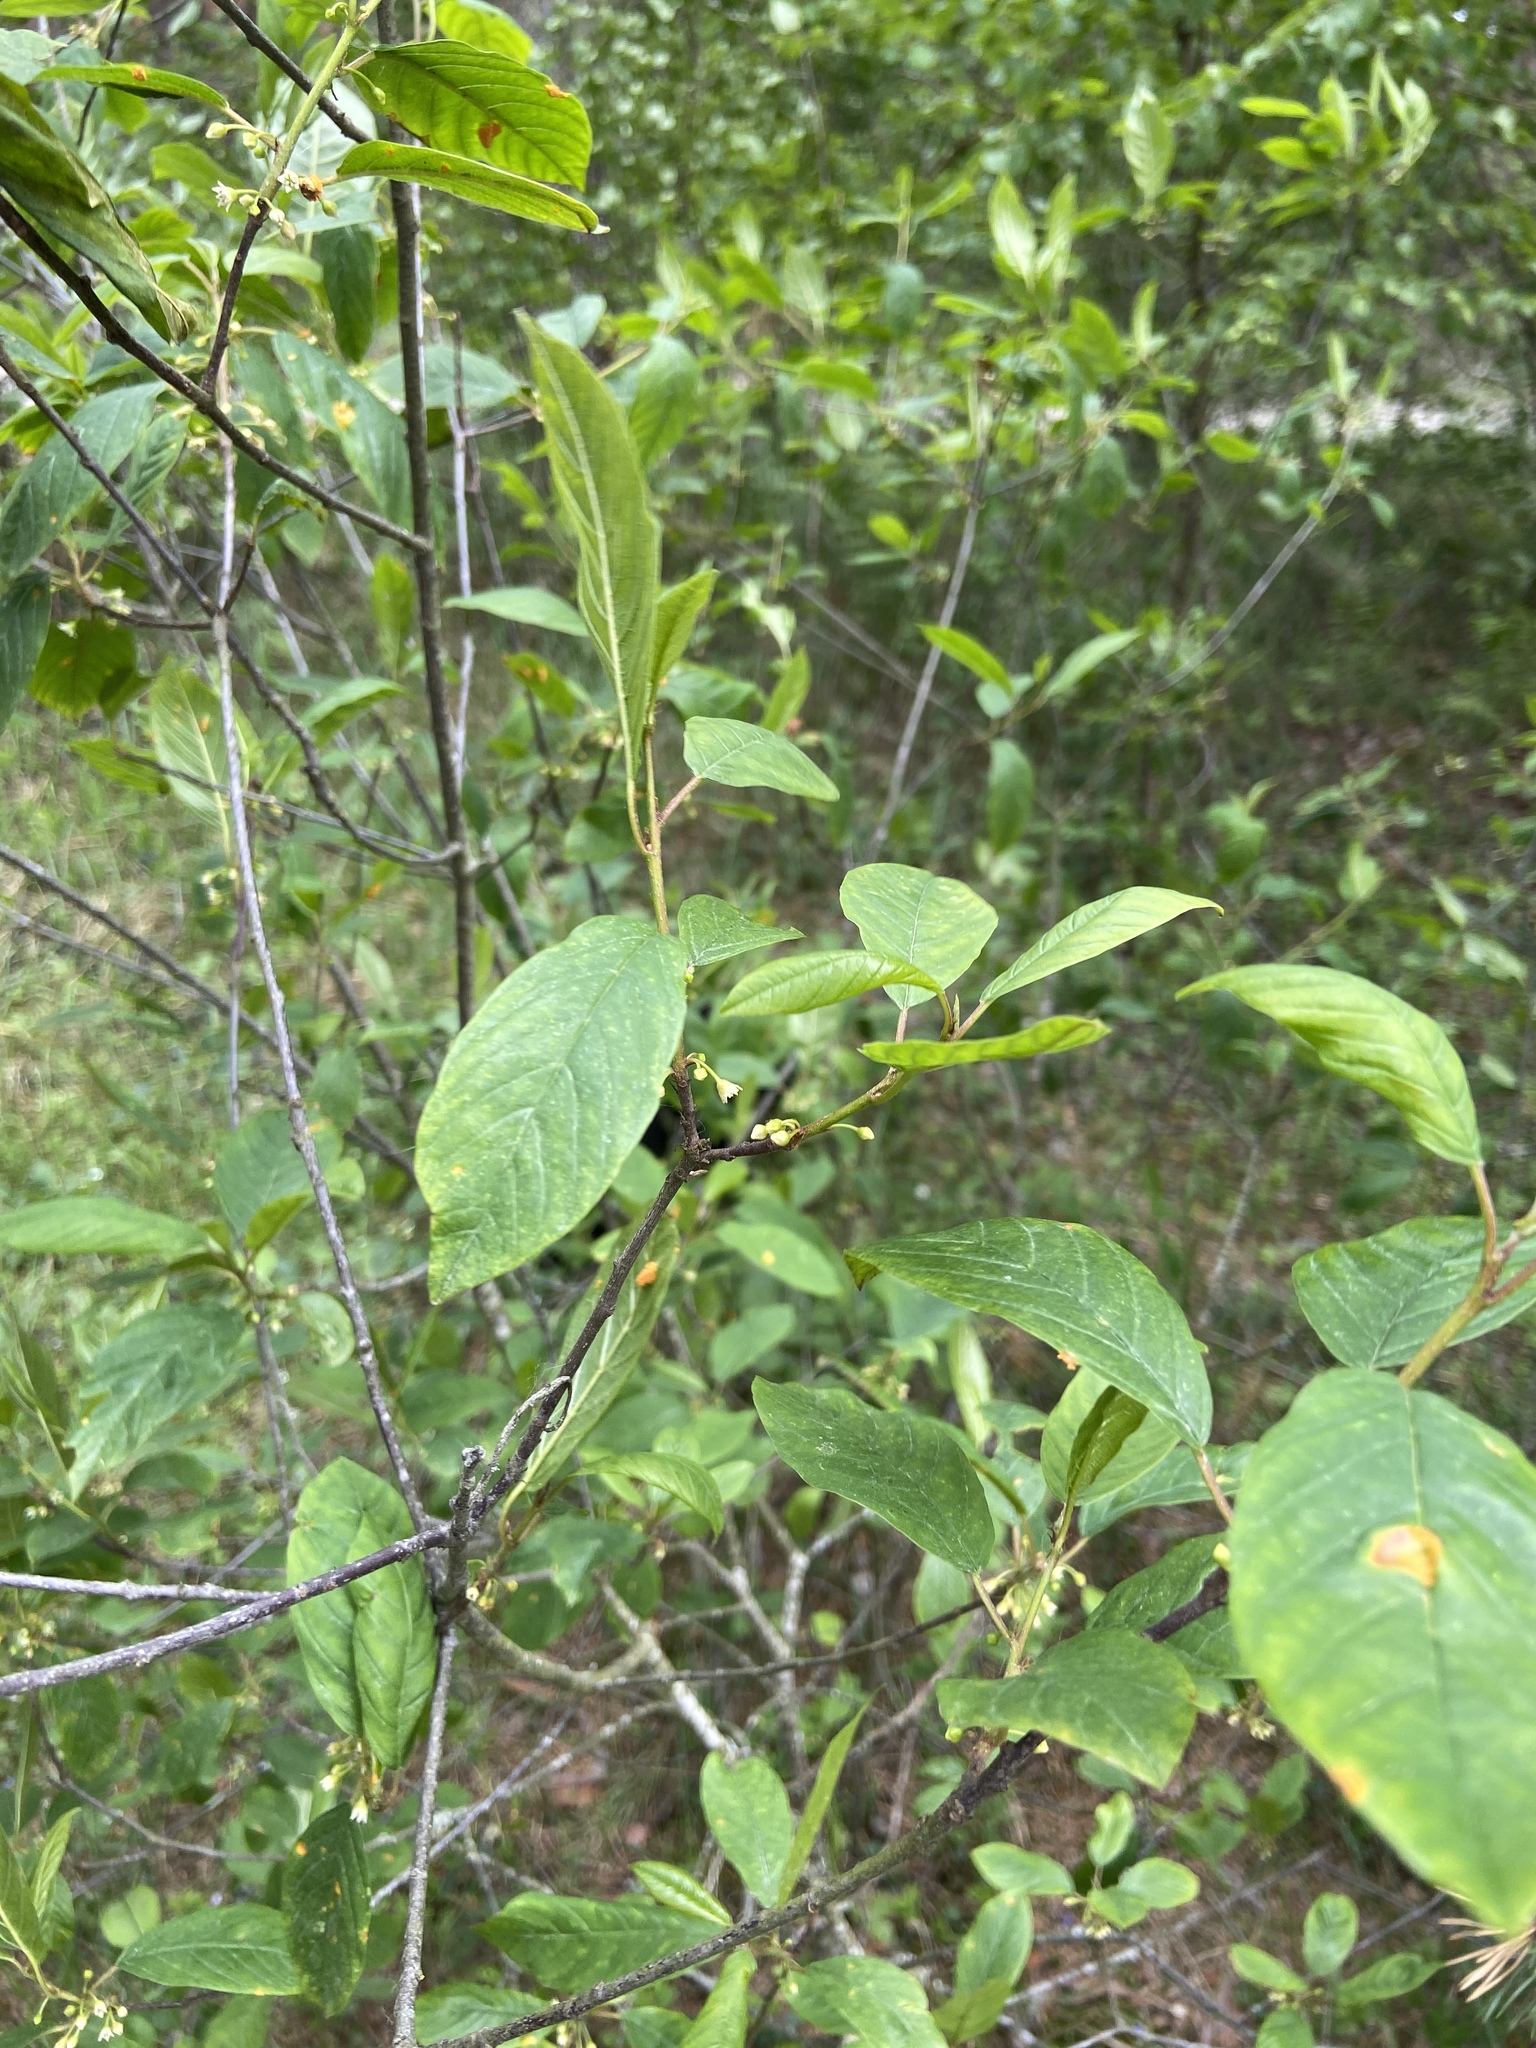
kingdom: Plantae
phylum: Tracheophyta
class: Magnoliopsida
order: Rosales
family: Rhamnaceae
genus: Frangula
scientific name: Frangula alnus
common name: Alder buckthorn
